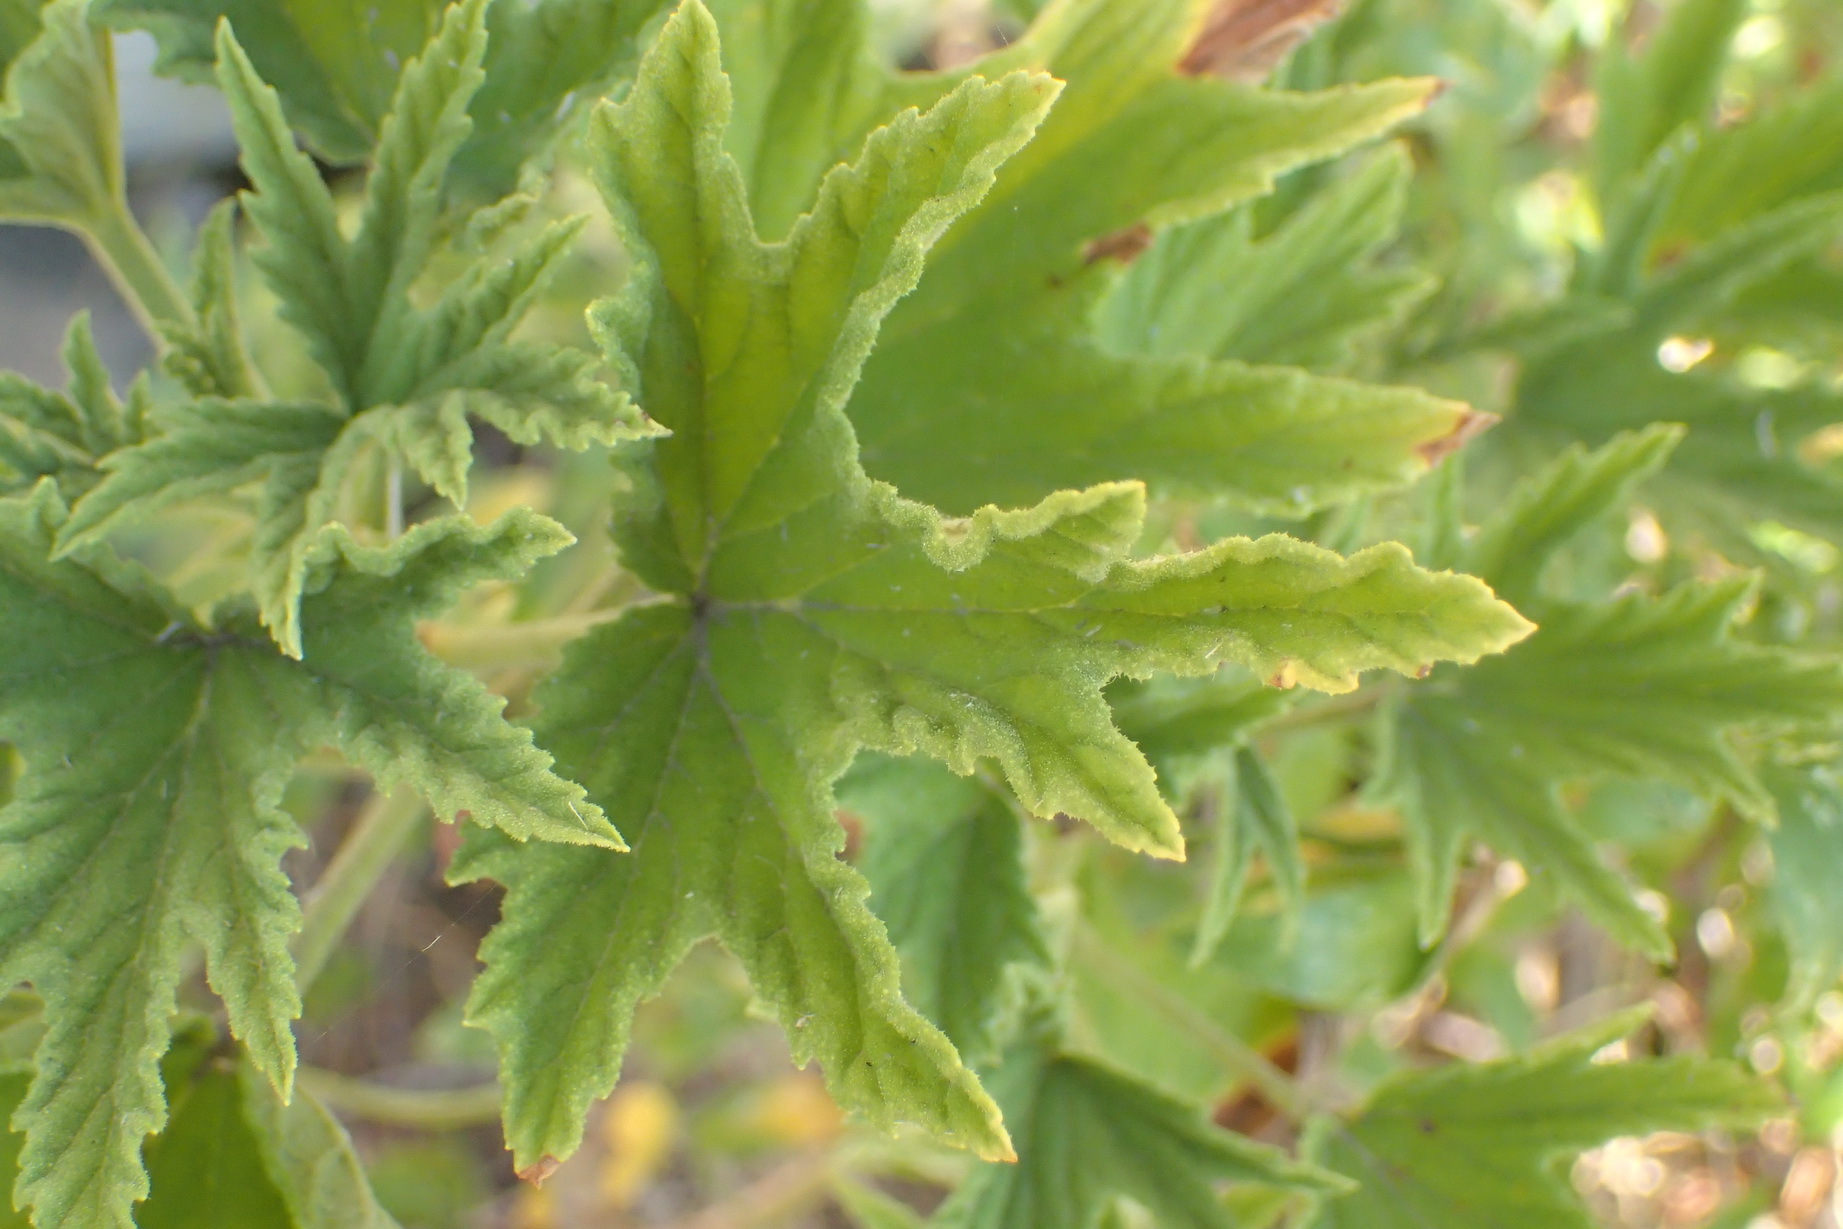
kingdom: Plantae
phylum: Tracheophyta
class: Magnoliopsida
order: Geraniales
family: Geraniaceae
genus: Pelargonium
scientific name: Pelargonium citronellum
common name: Lemon-scent pelargonium
